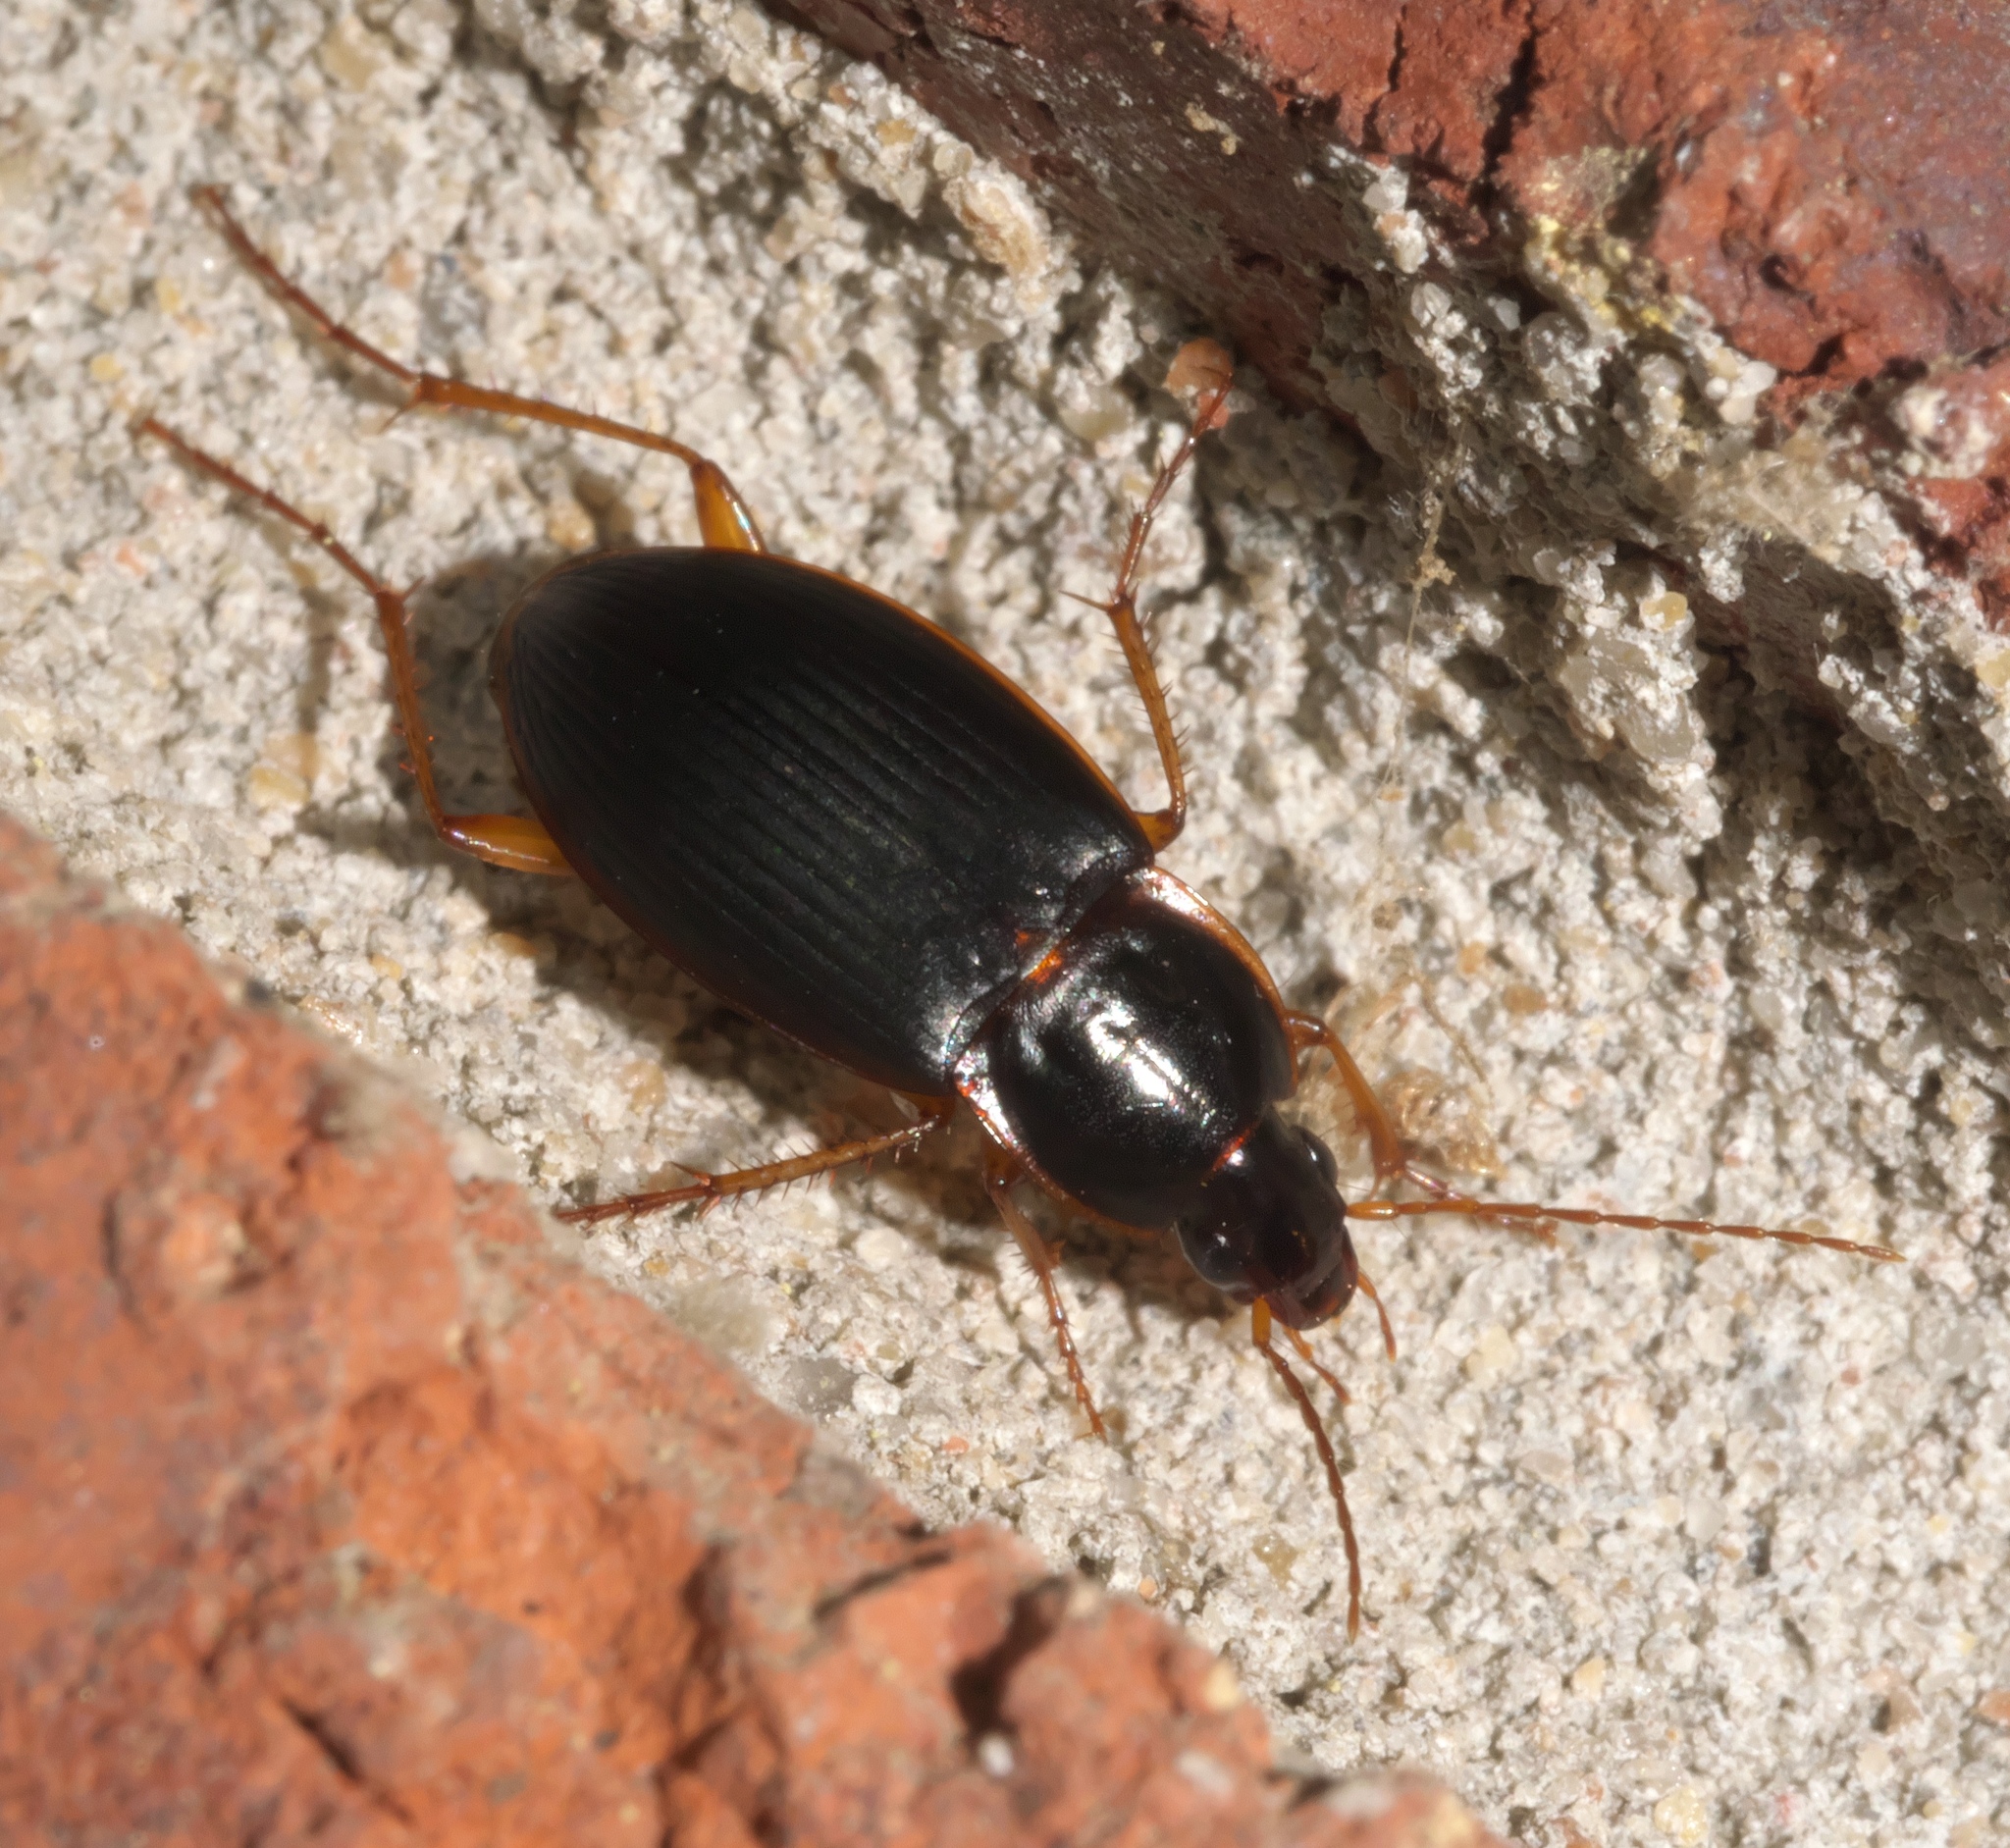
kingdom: Animalia
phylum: Arthropoda
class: Insecta
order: Coleoptera
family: Carabidae
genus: Calathus
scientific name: Calathus opaculus
